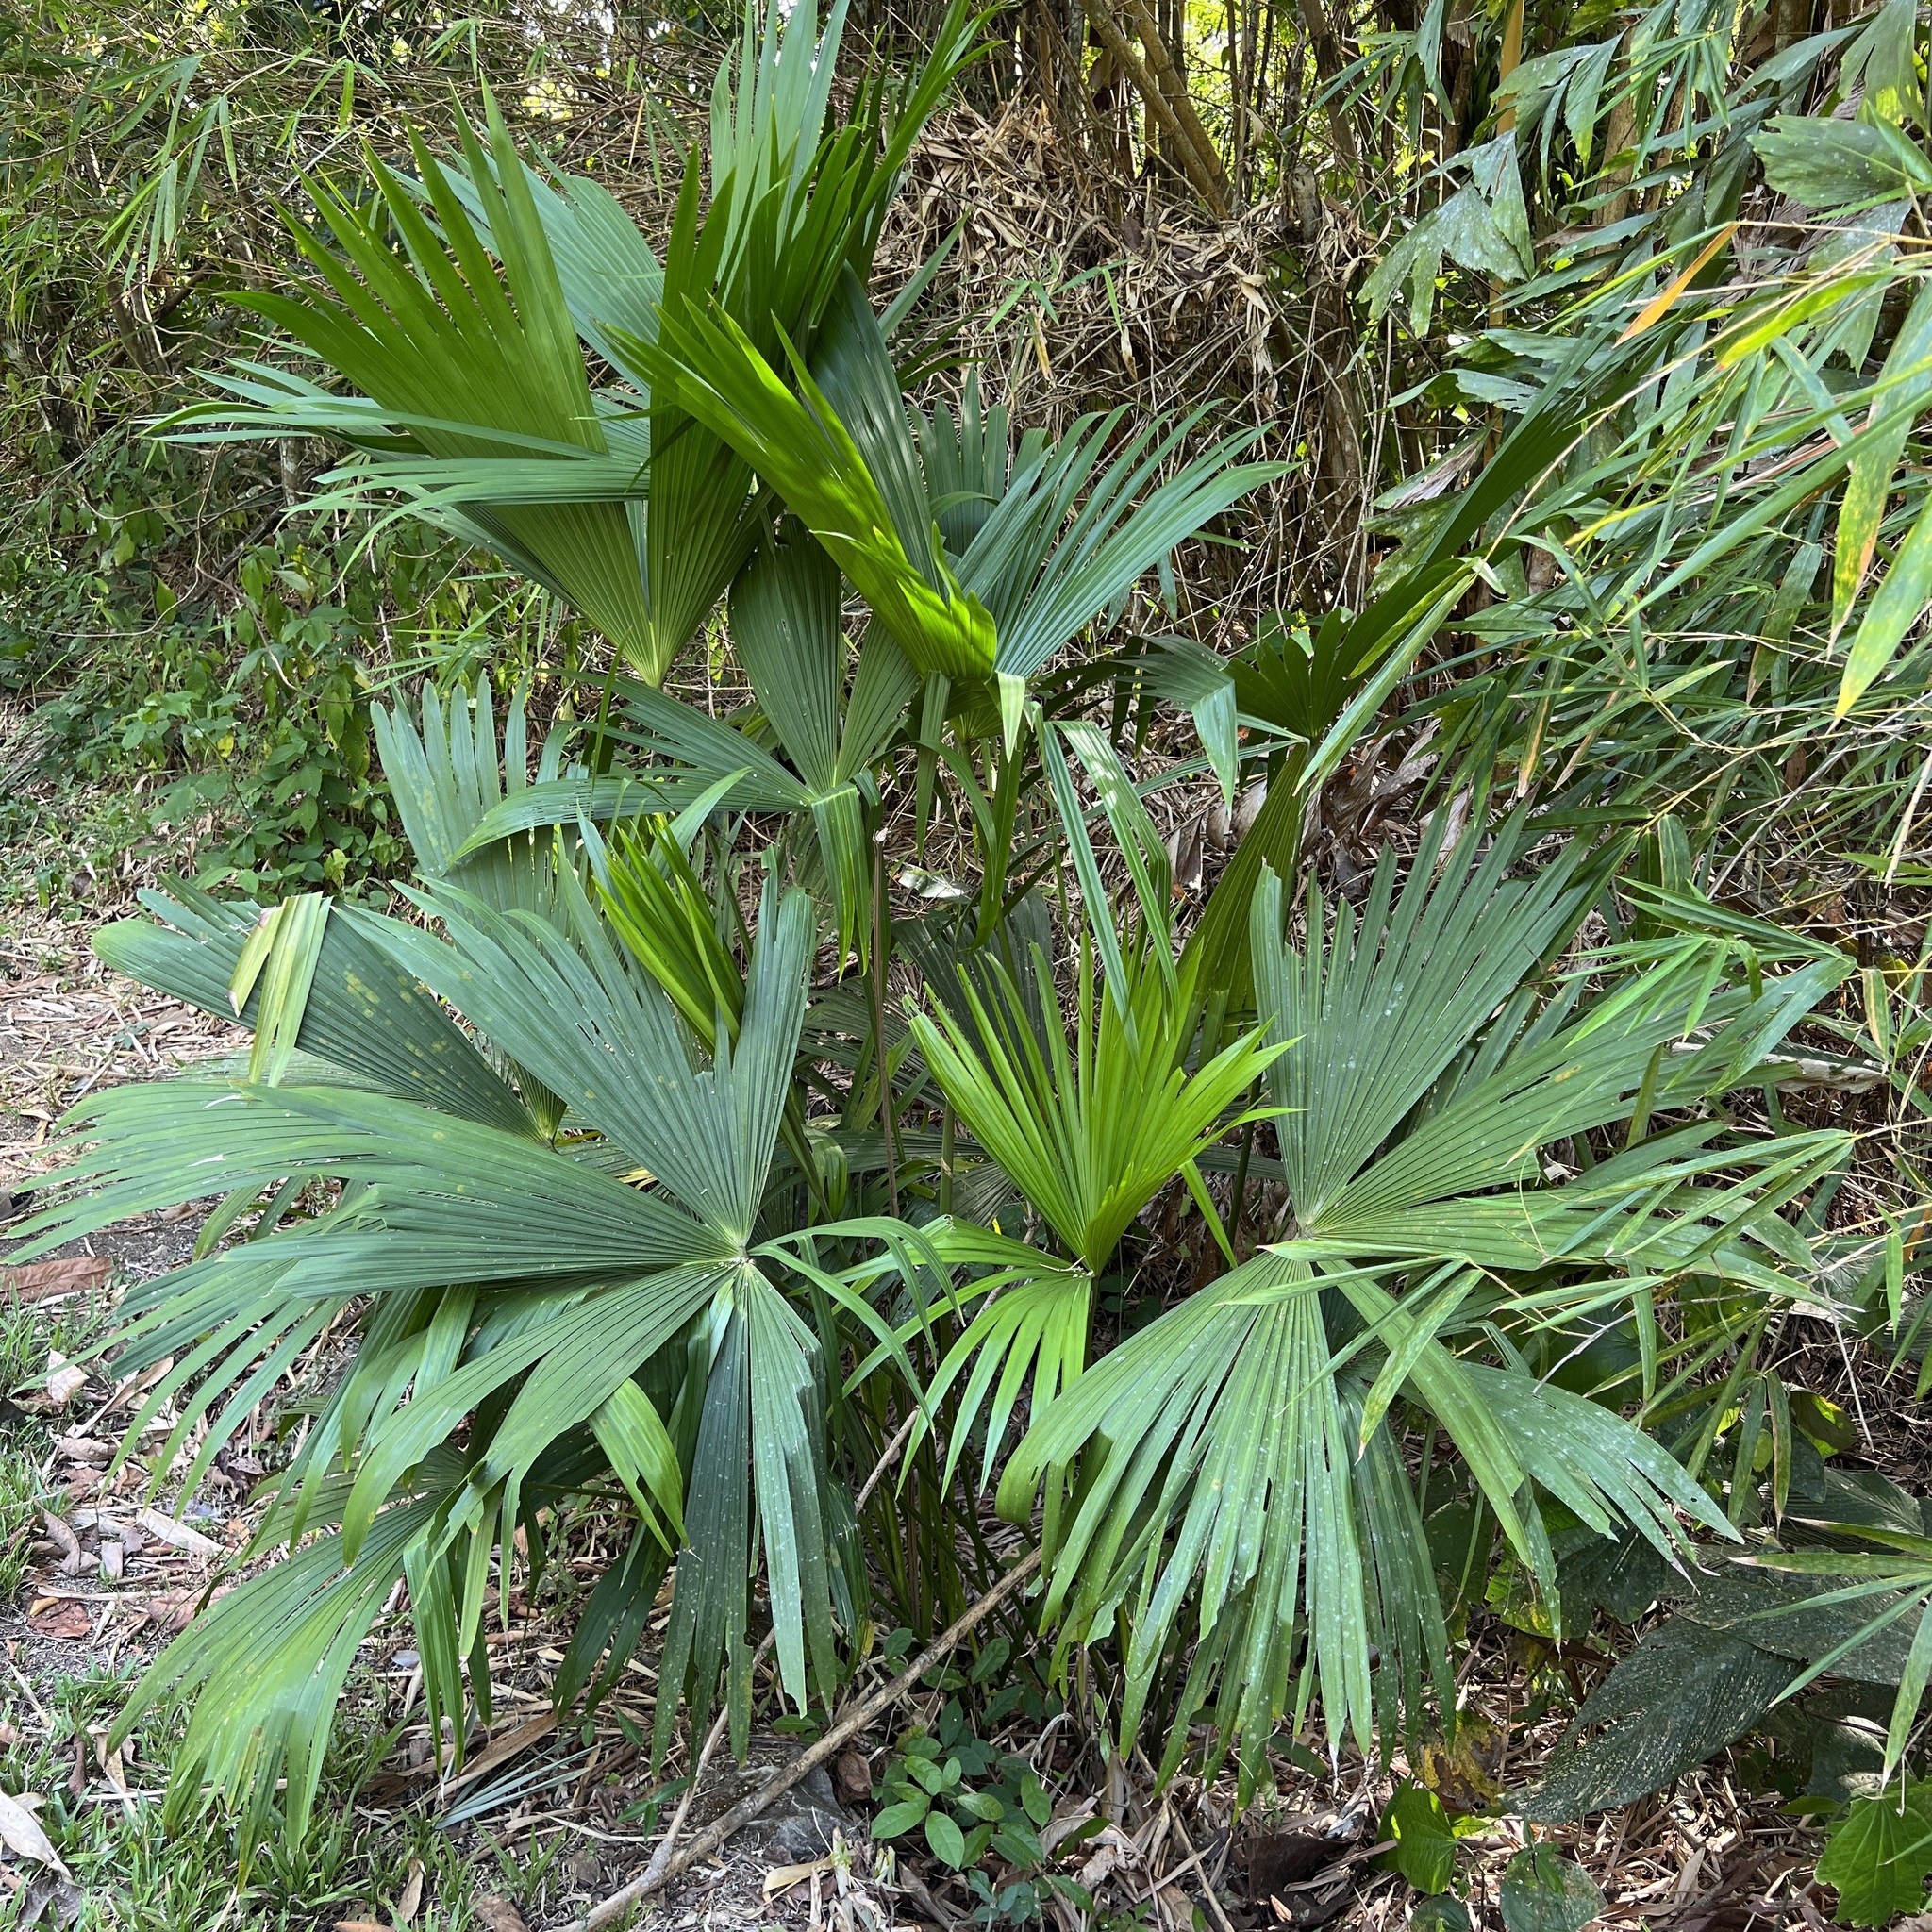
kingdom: Plantae
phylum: Tracheophyta
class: Liliopsida
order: Pandanales
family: Cyclanthaceae
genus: Carludovica
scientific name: Carludovica palmata
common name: Panama hat plant
